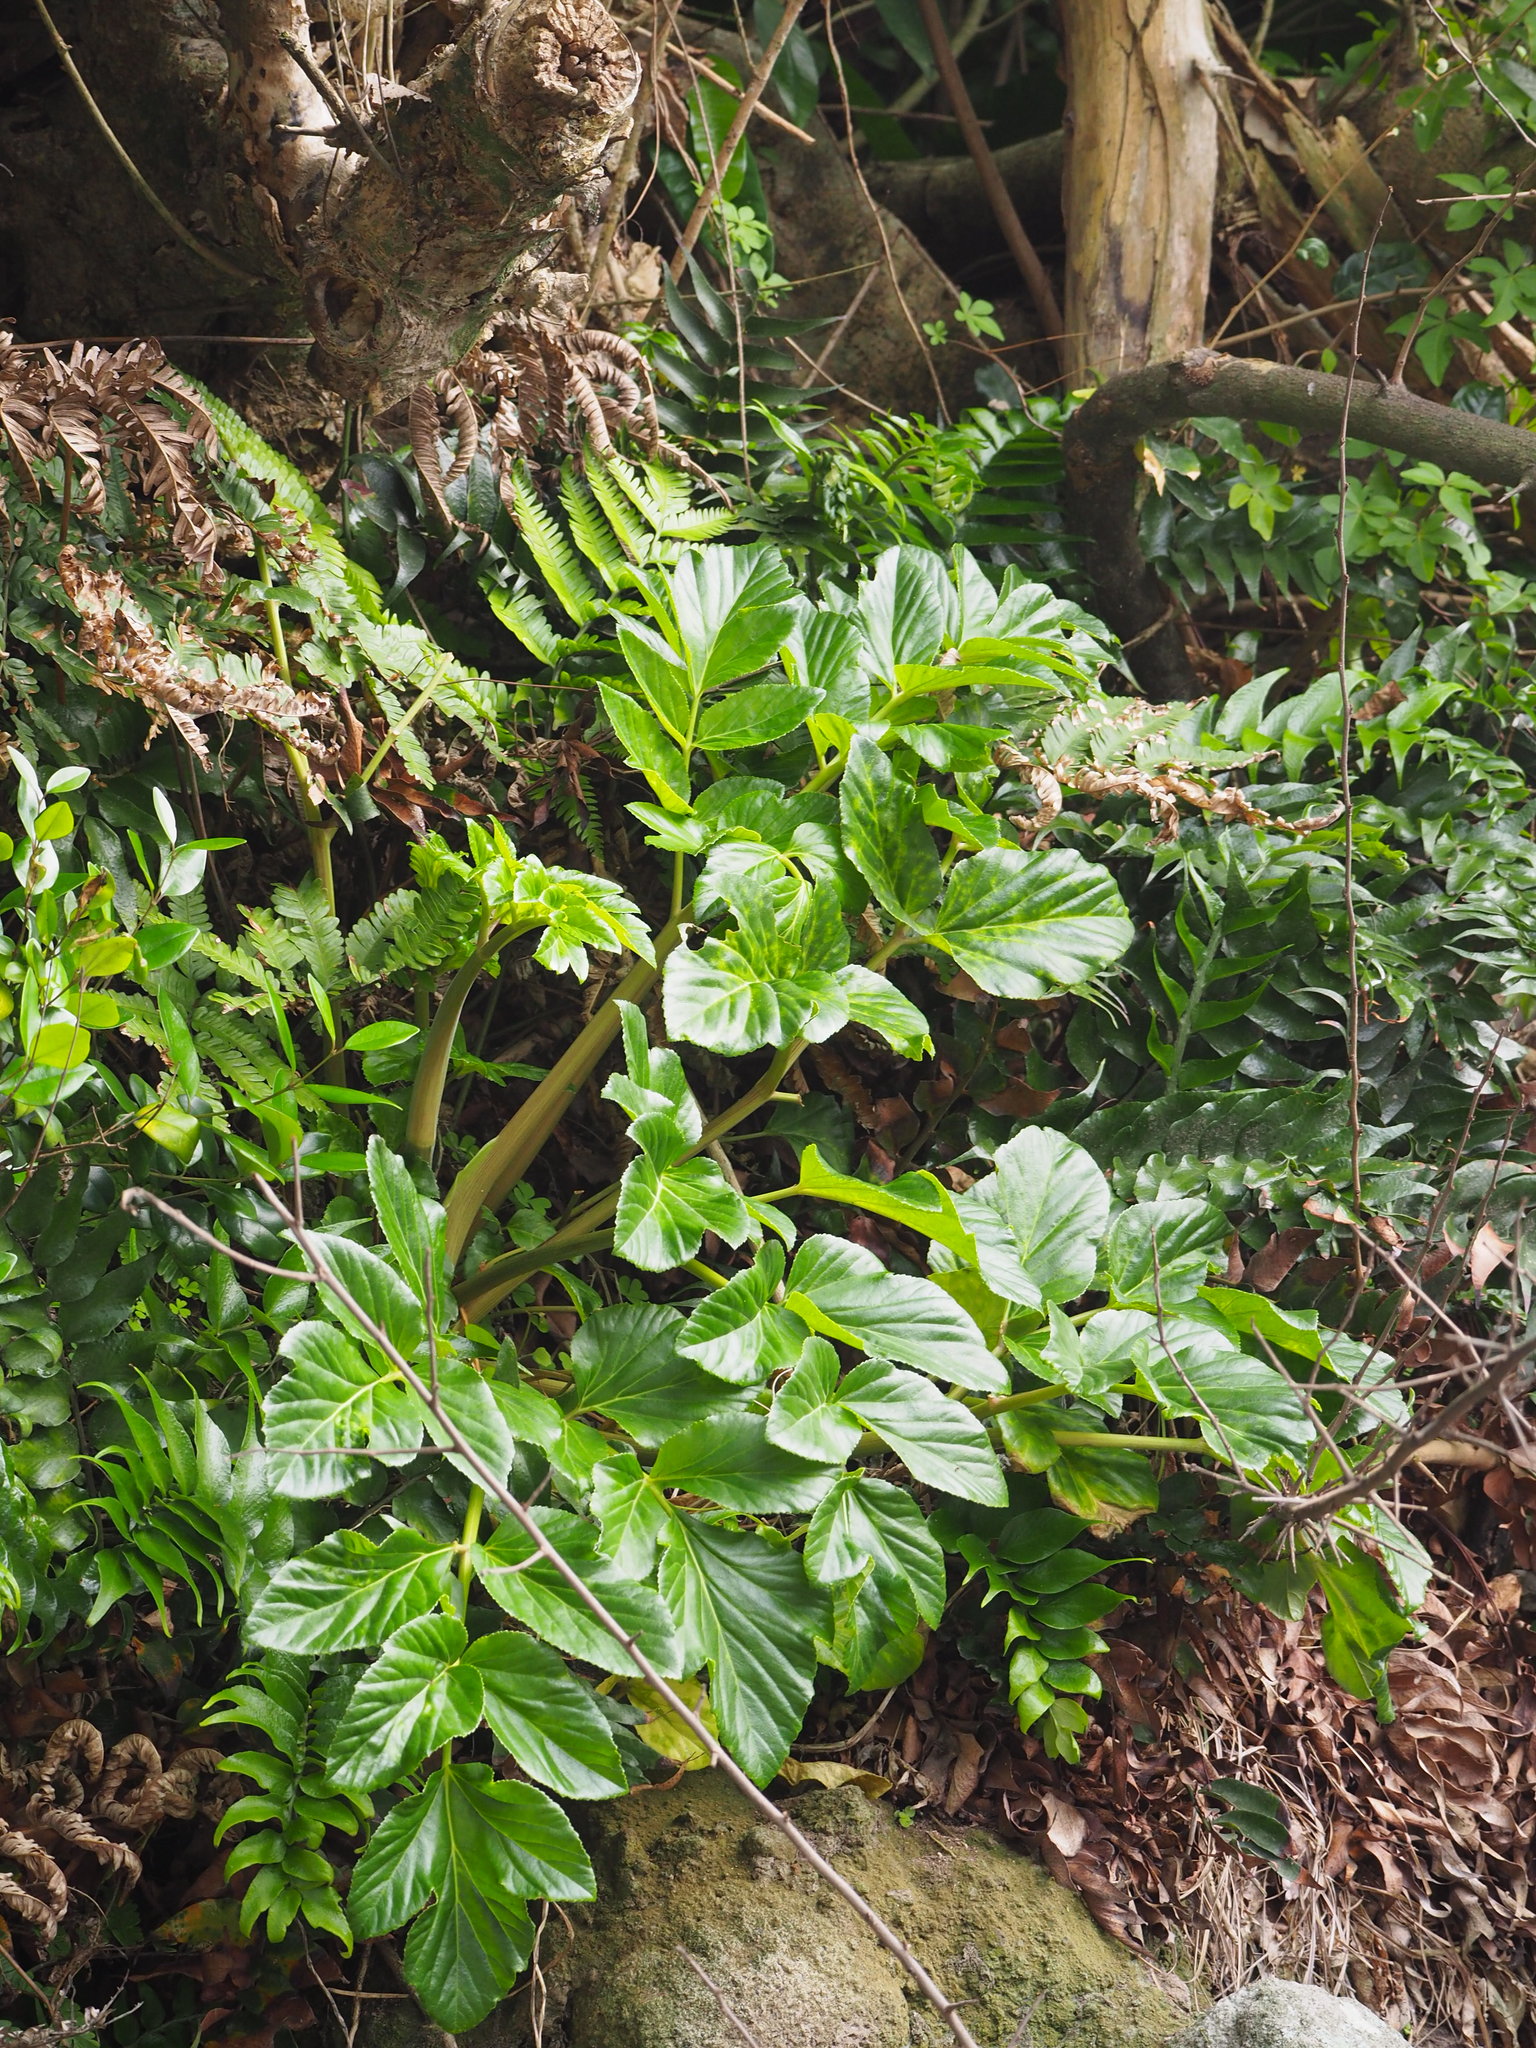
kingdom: Plantae
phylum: Tracheophyta
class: Magnoliopsida
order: Apiales
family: Apiaceae
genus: Angelica
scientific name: Angelica hirsutiflora
